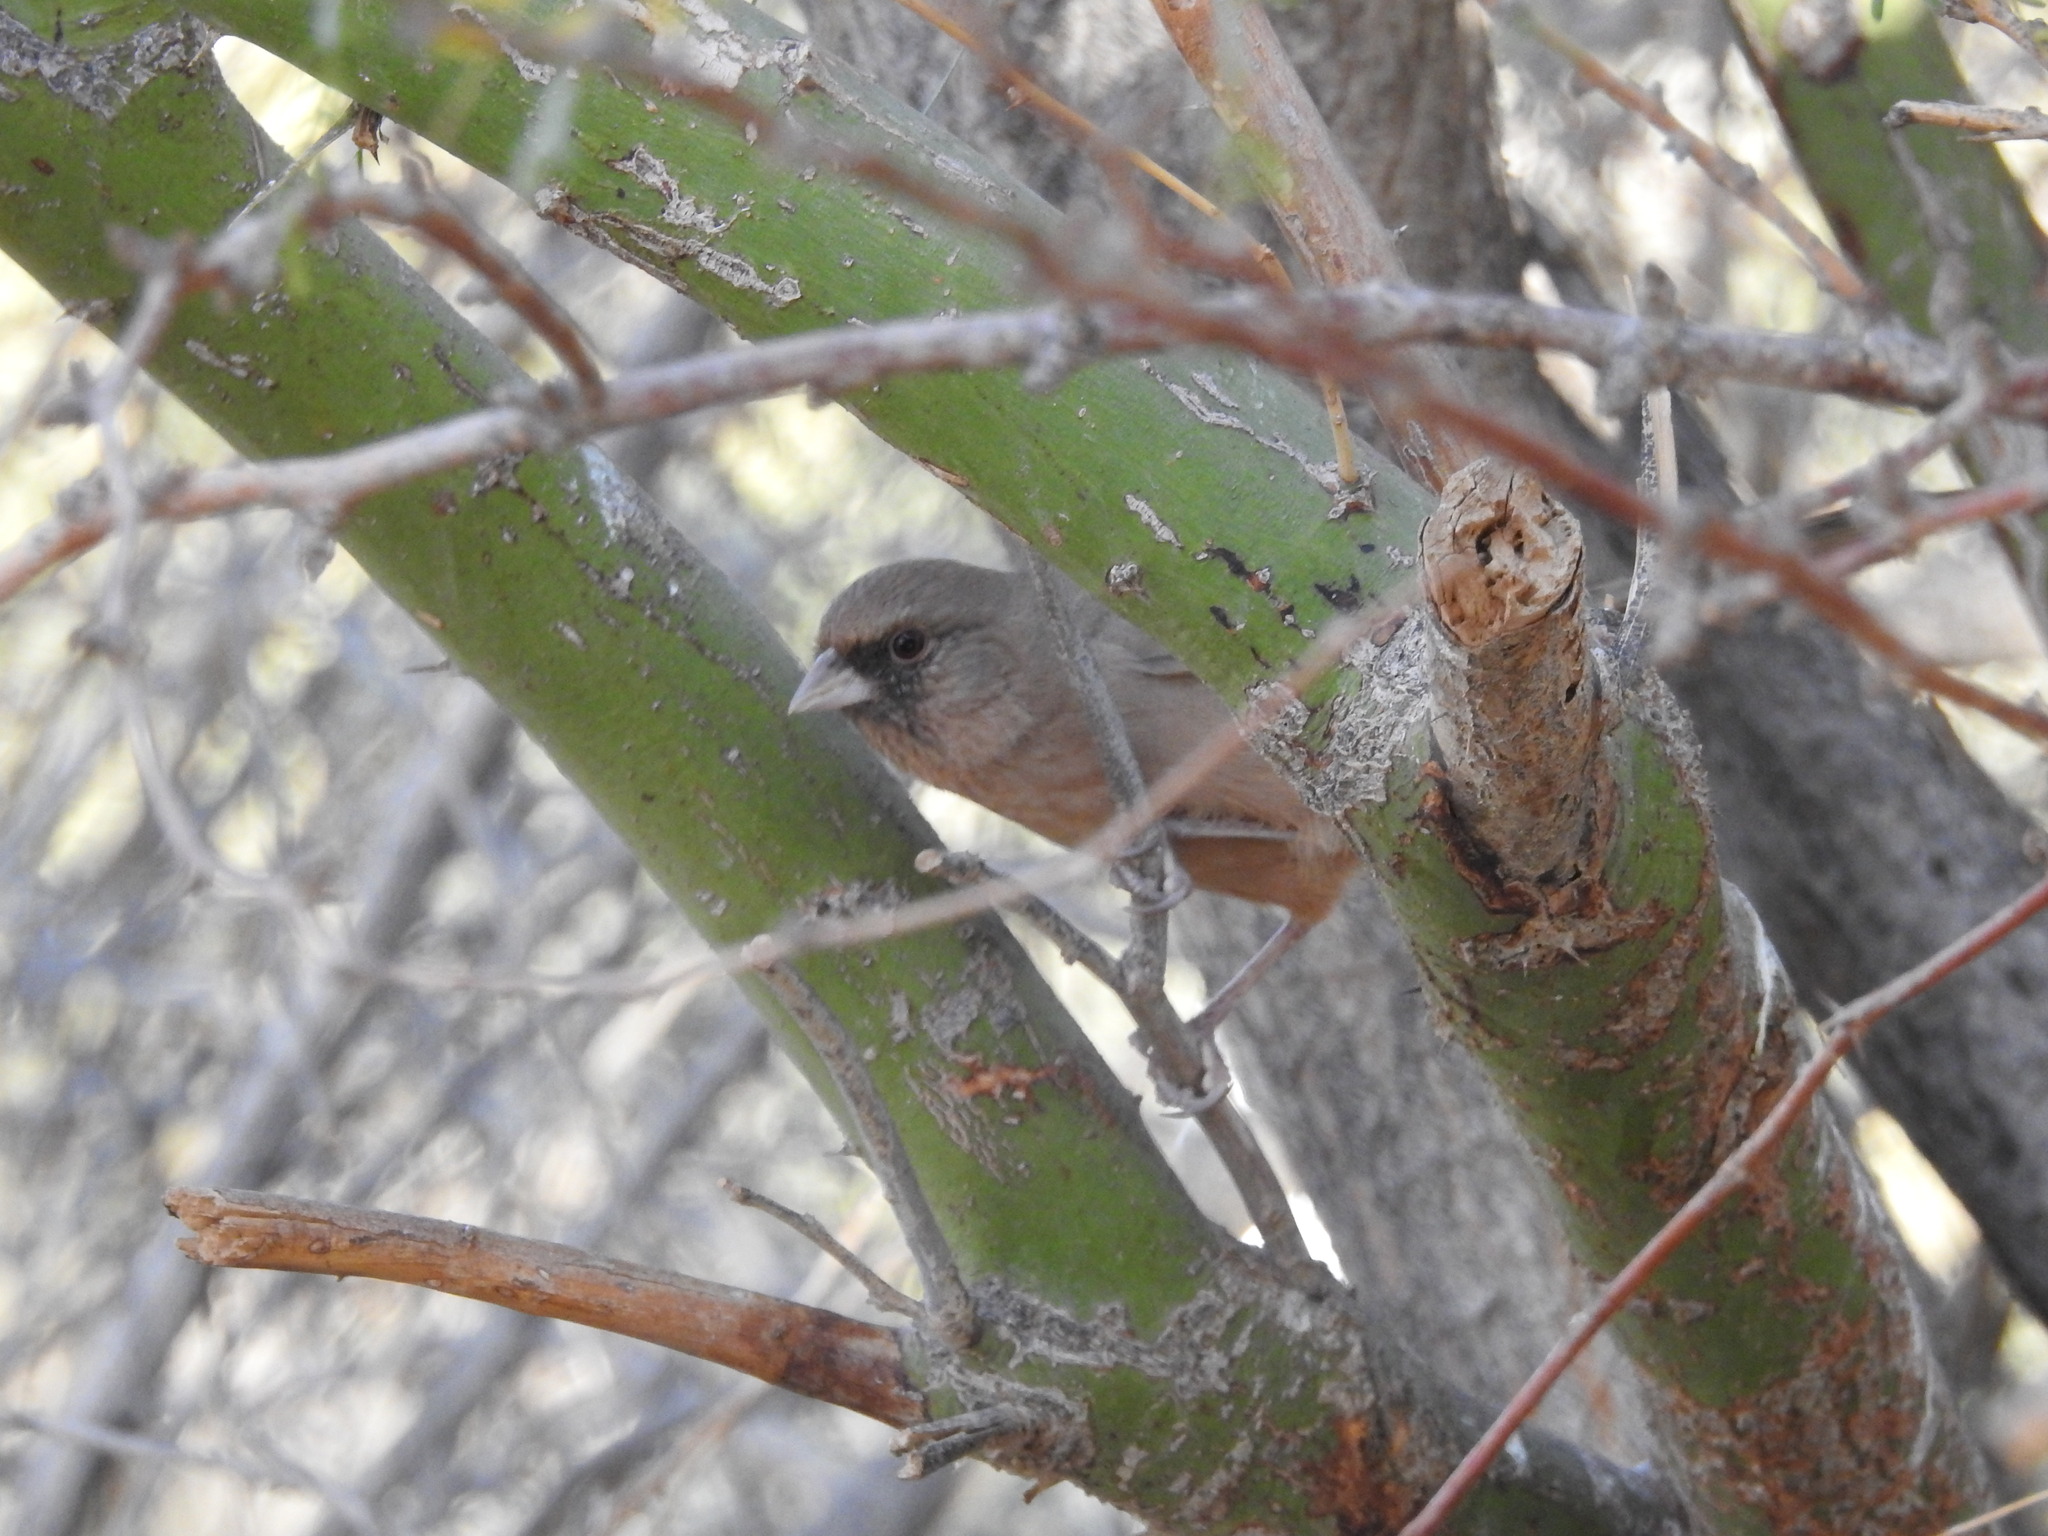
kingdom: Animalia
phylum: Chordata
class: Aves
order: Passeriformes
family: Passerellidae
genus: Melozone
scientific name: Melozone aberti
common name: Abert's towhee
